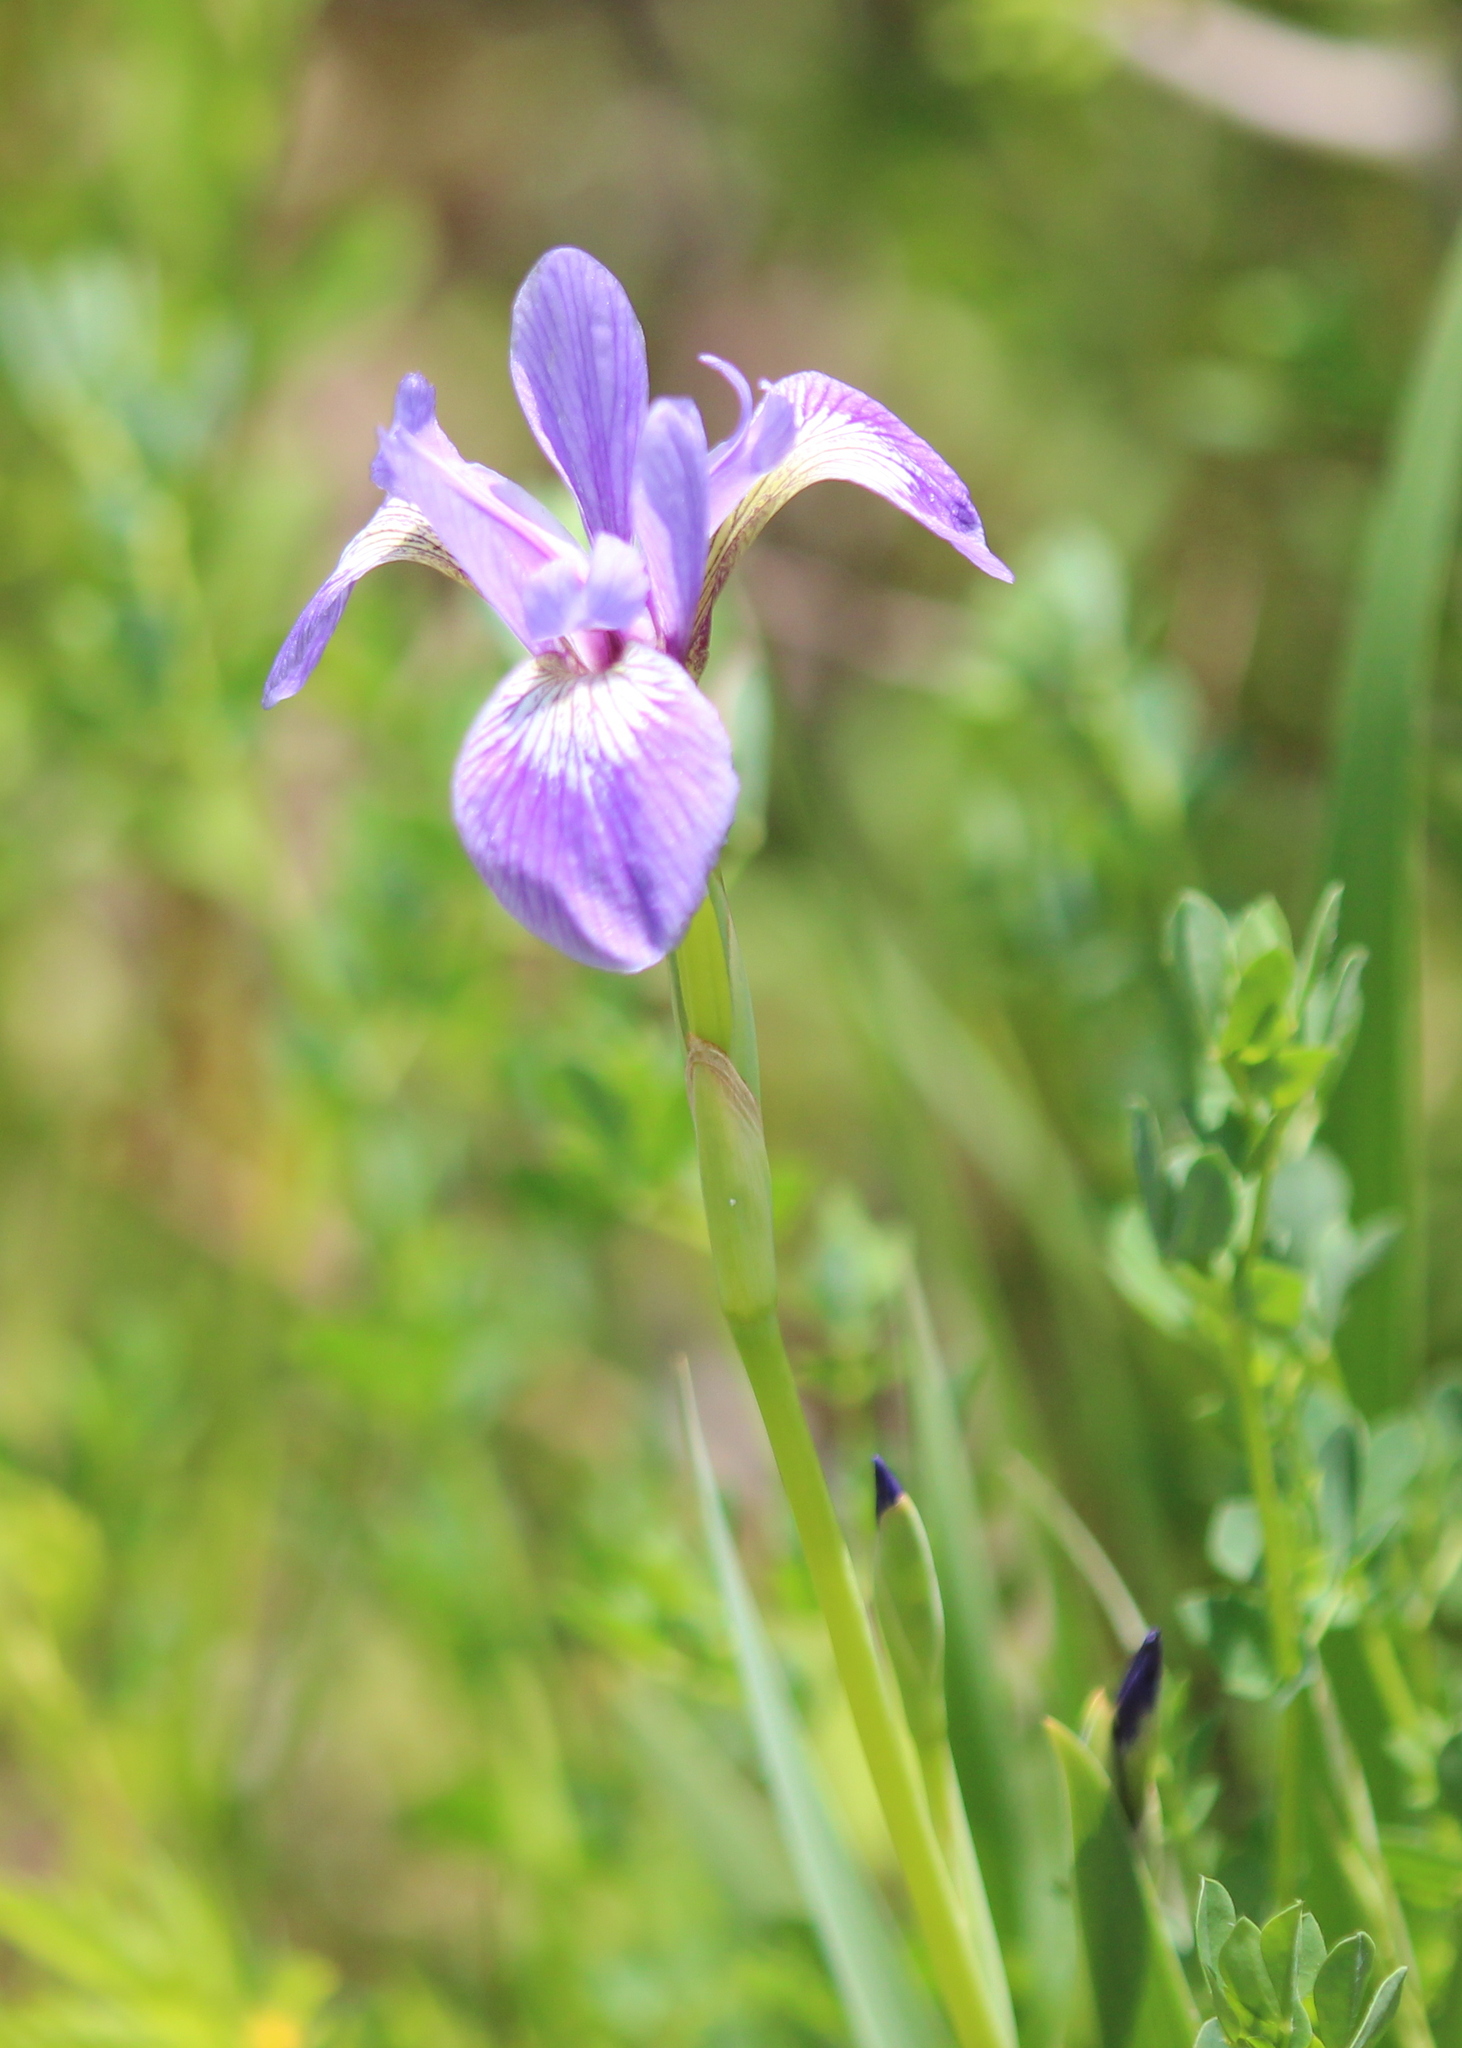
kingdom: Plantae
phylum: Tracheophyta
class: Liliopsida
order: Asparagales
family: Iridaceae
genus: Iris
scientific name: Iris versicolor
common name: Purple iris
